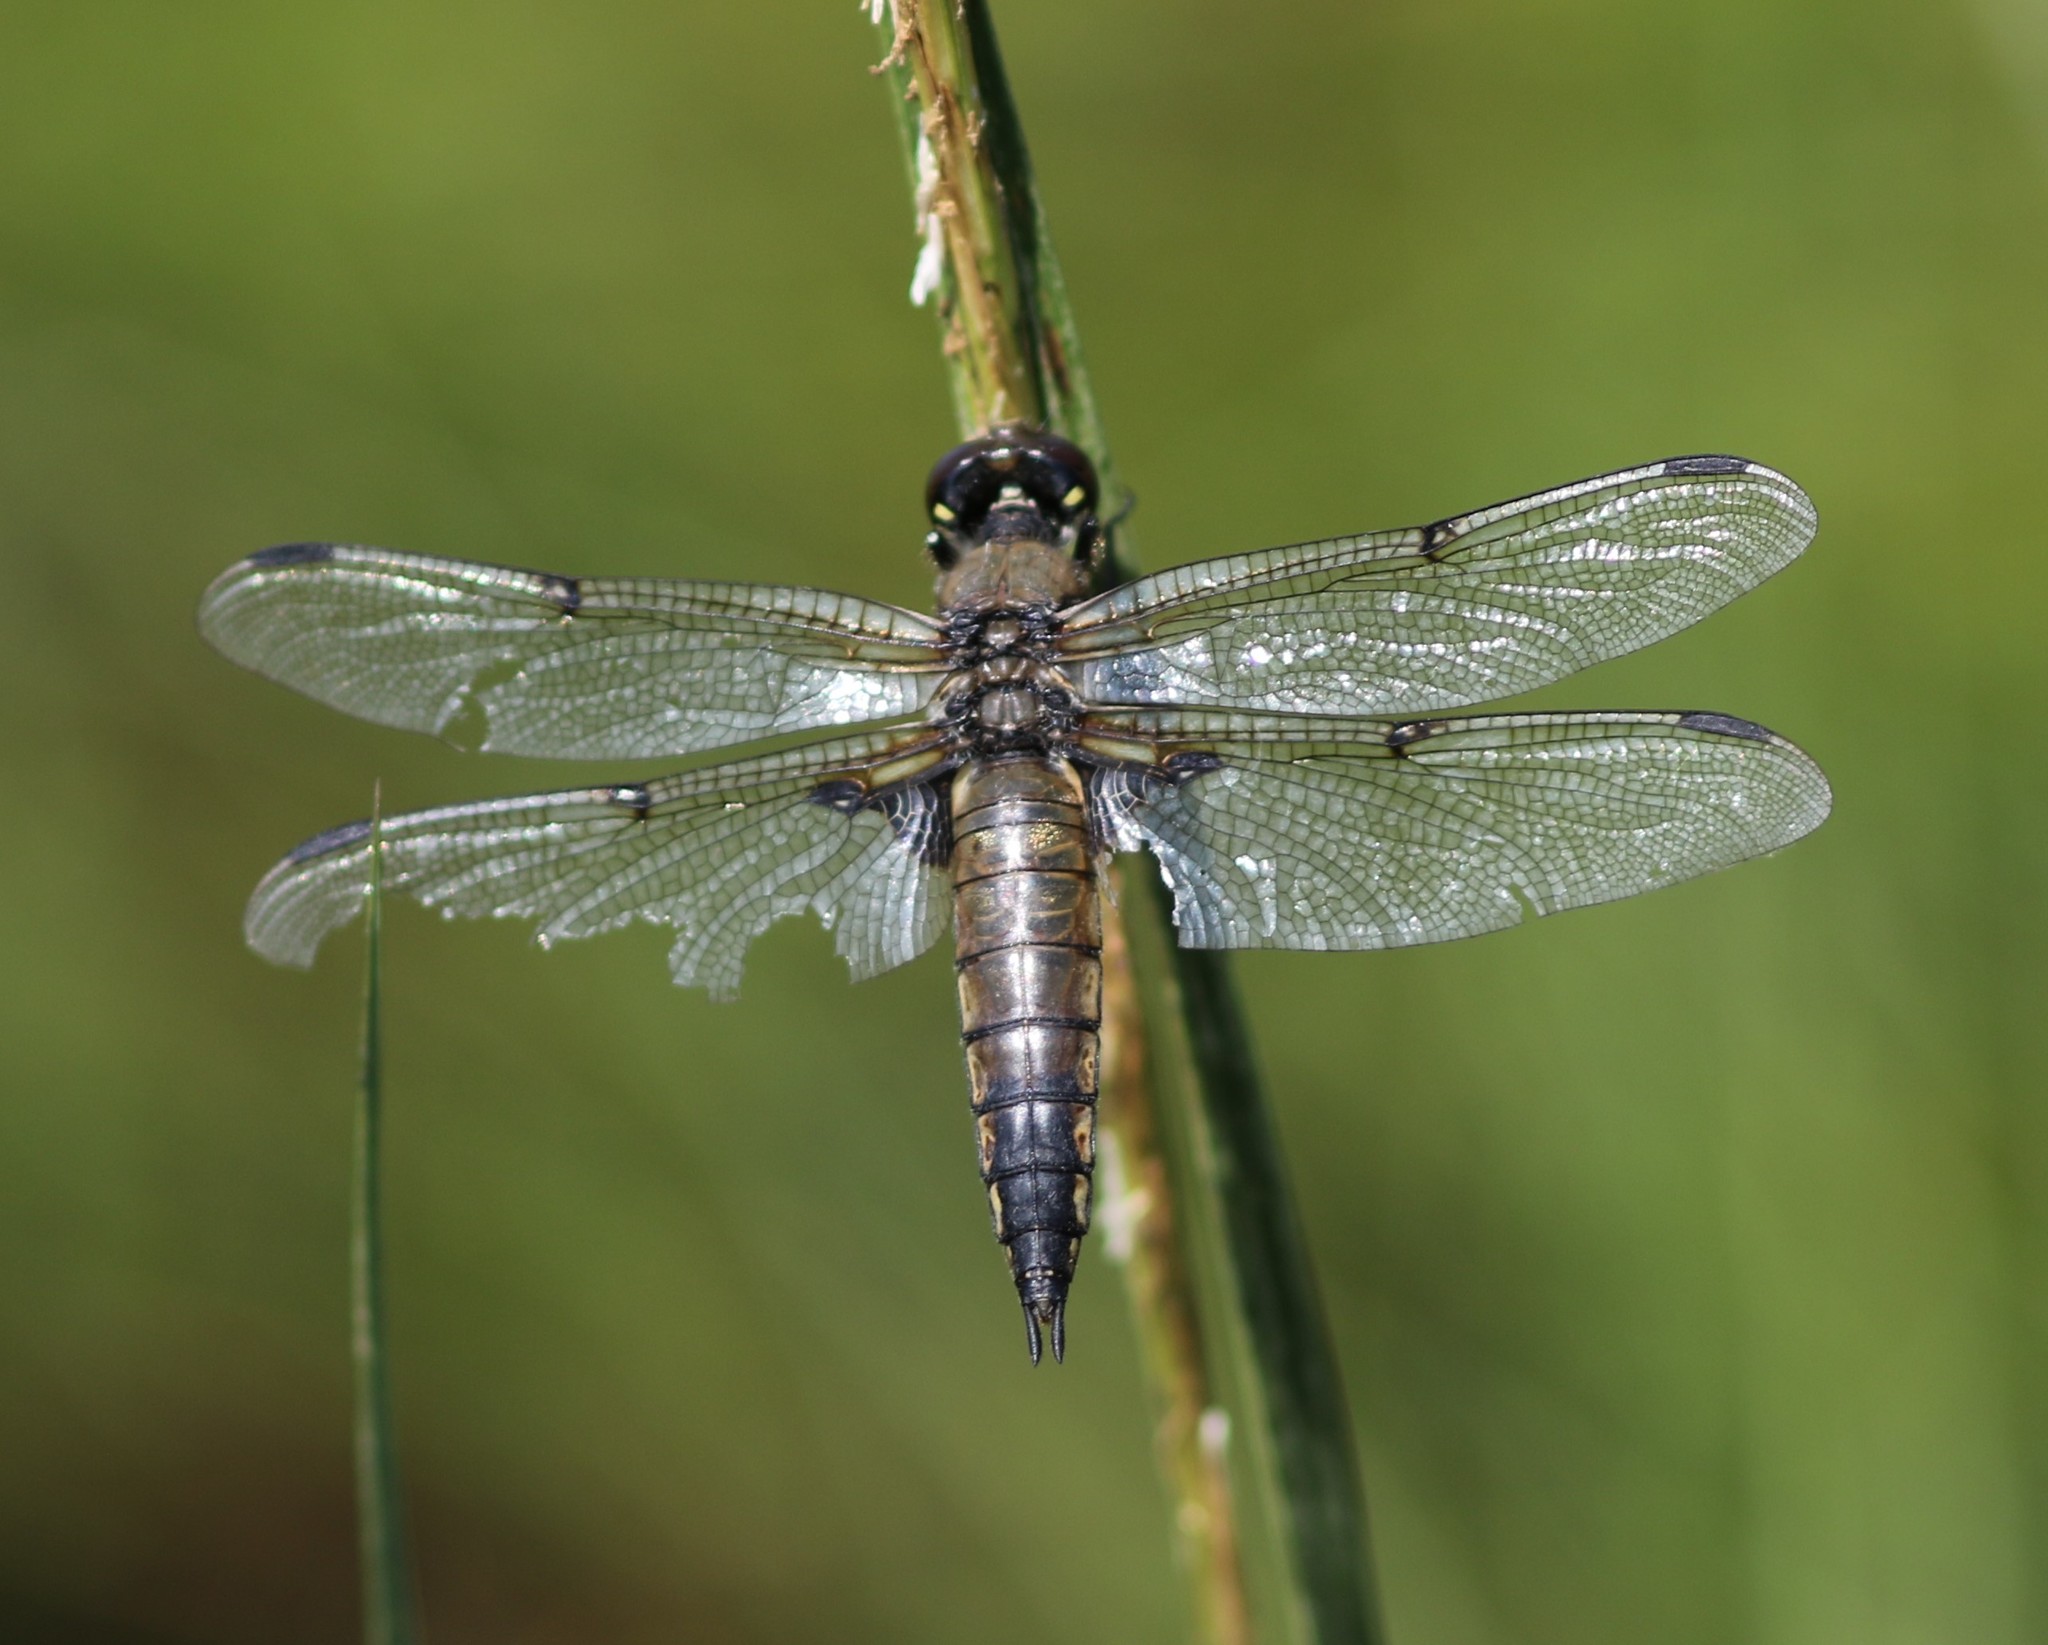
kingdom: Animalia
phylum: Arthropoda
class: Insecta
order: Odonata
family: Libellulidae
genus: Libellula
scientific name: Libellula quadrimaculata
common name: Four-spotted chaser
